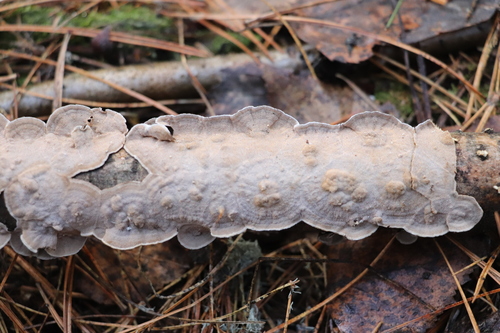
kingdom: Fungi
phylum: Basidiomycota
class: Agaricomycetes
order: Polyporales
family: Polyporaceae
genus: Podofomes
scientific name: Podofomes mollis
